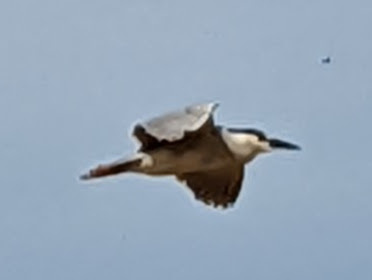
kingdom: Animalia
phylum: Chordata
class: Aves
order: Pelecaniformes
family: Ardeidae
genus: Nycticorax
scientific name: Nycticorax nycticorax
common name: Black-crowned night heron
